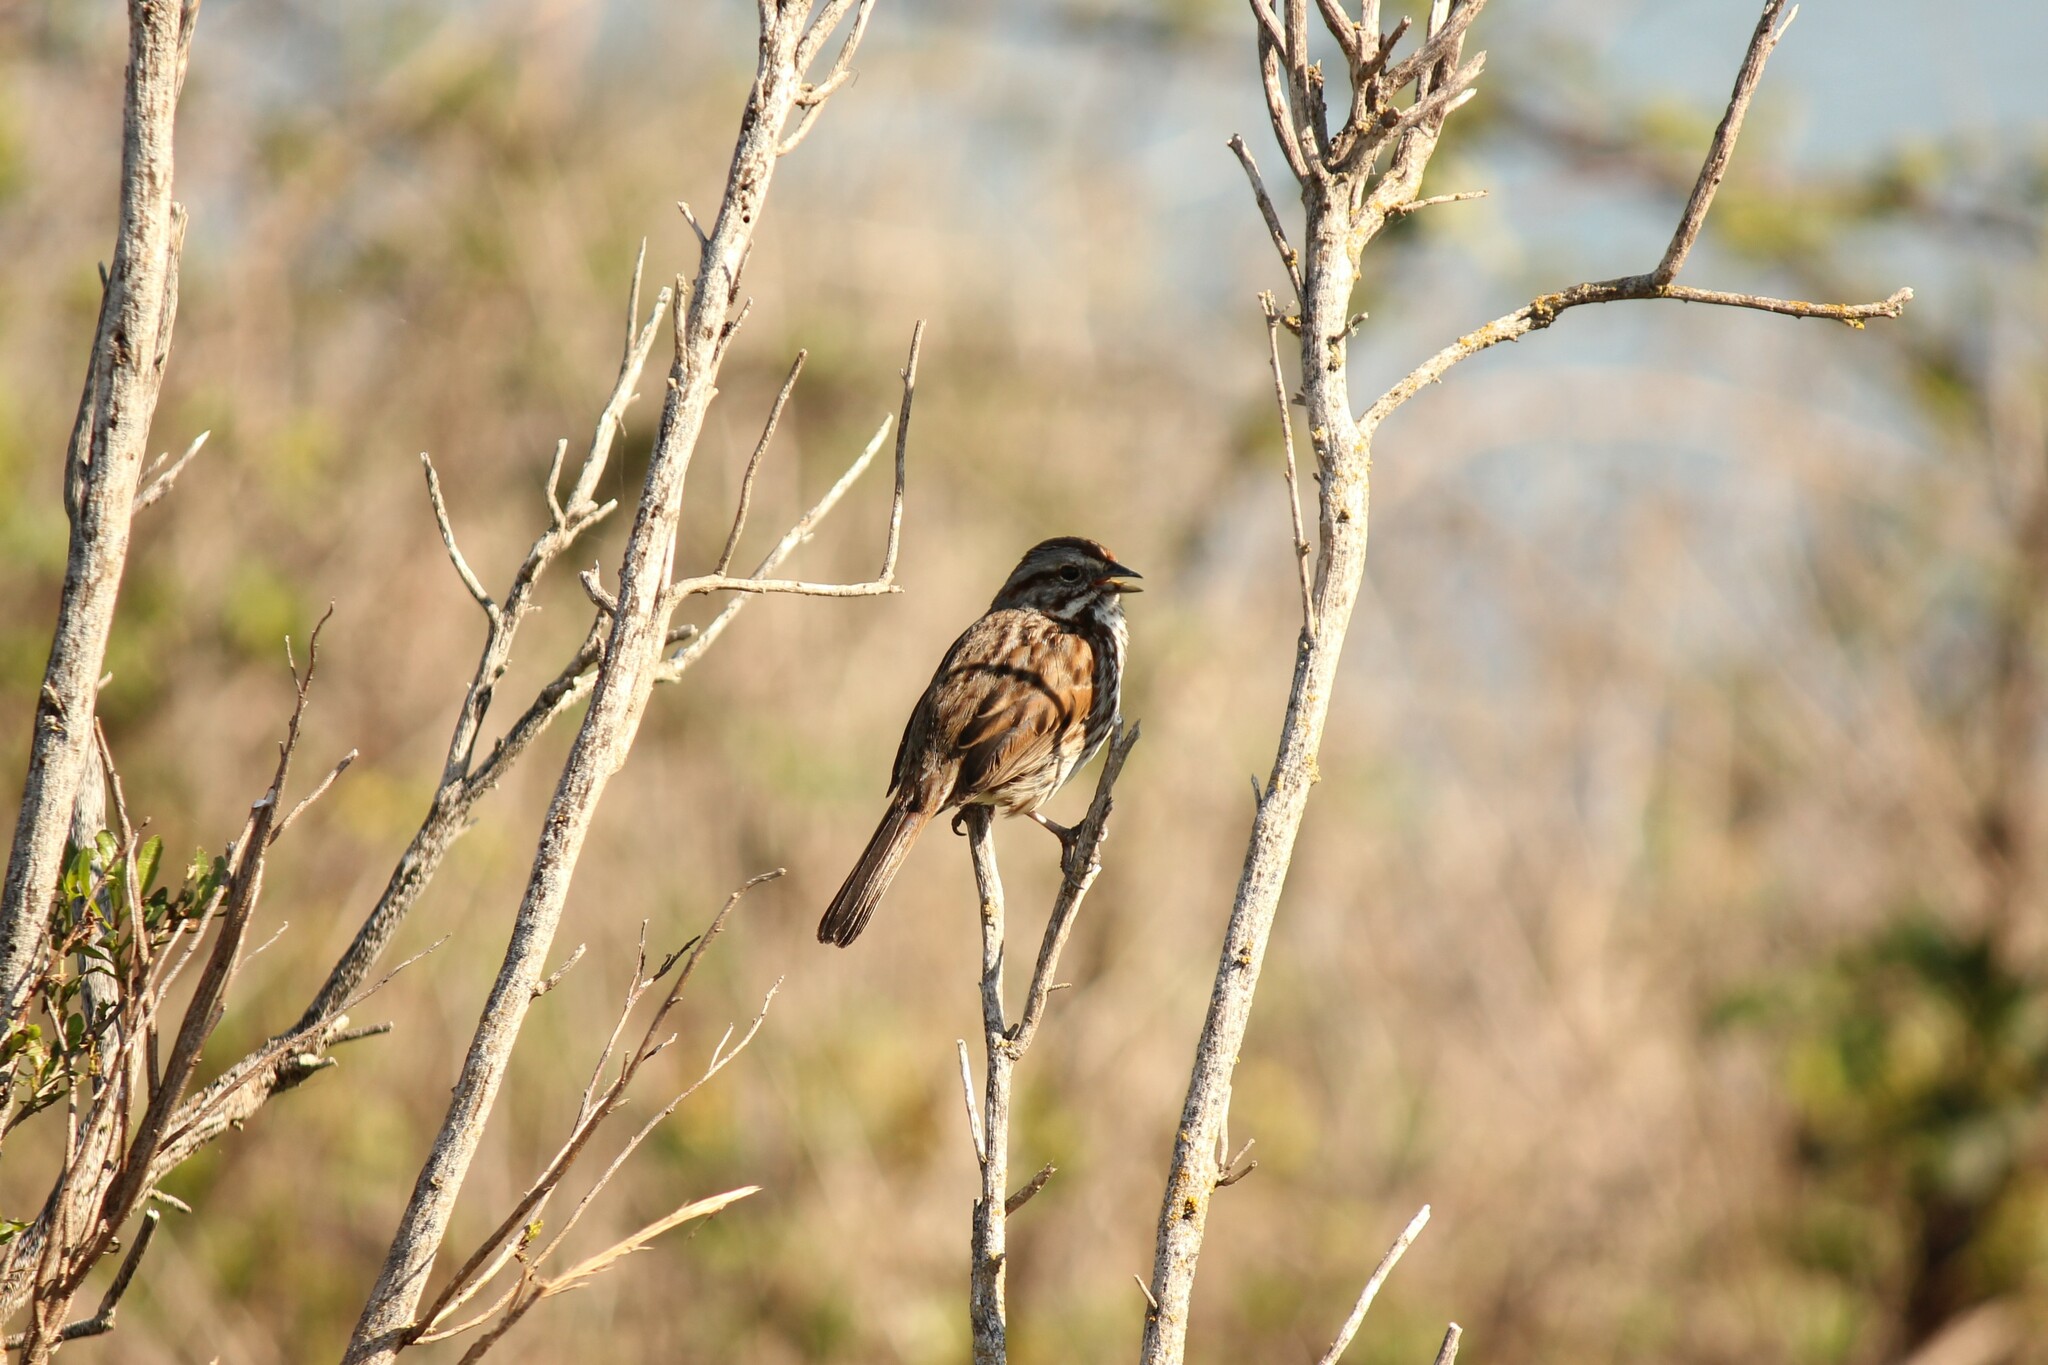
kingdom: Animalia
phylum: Chordata
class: Aves
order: Passeriformes
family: Passerellidae
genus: Melospiza
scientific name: Melospiza melodia
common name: Song sparrow
